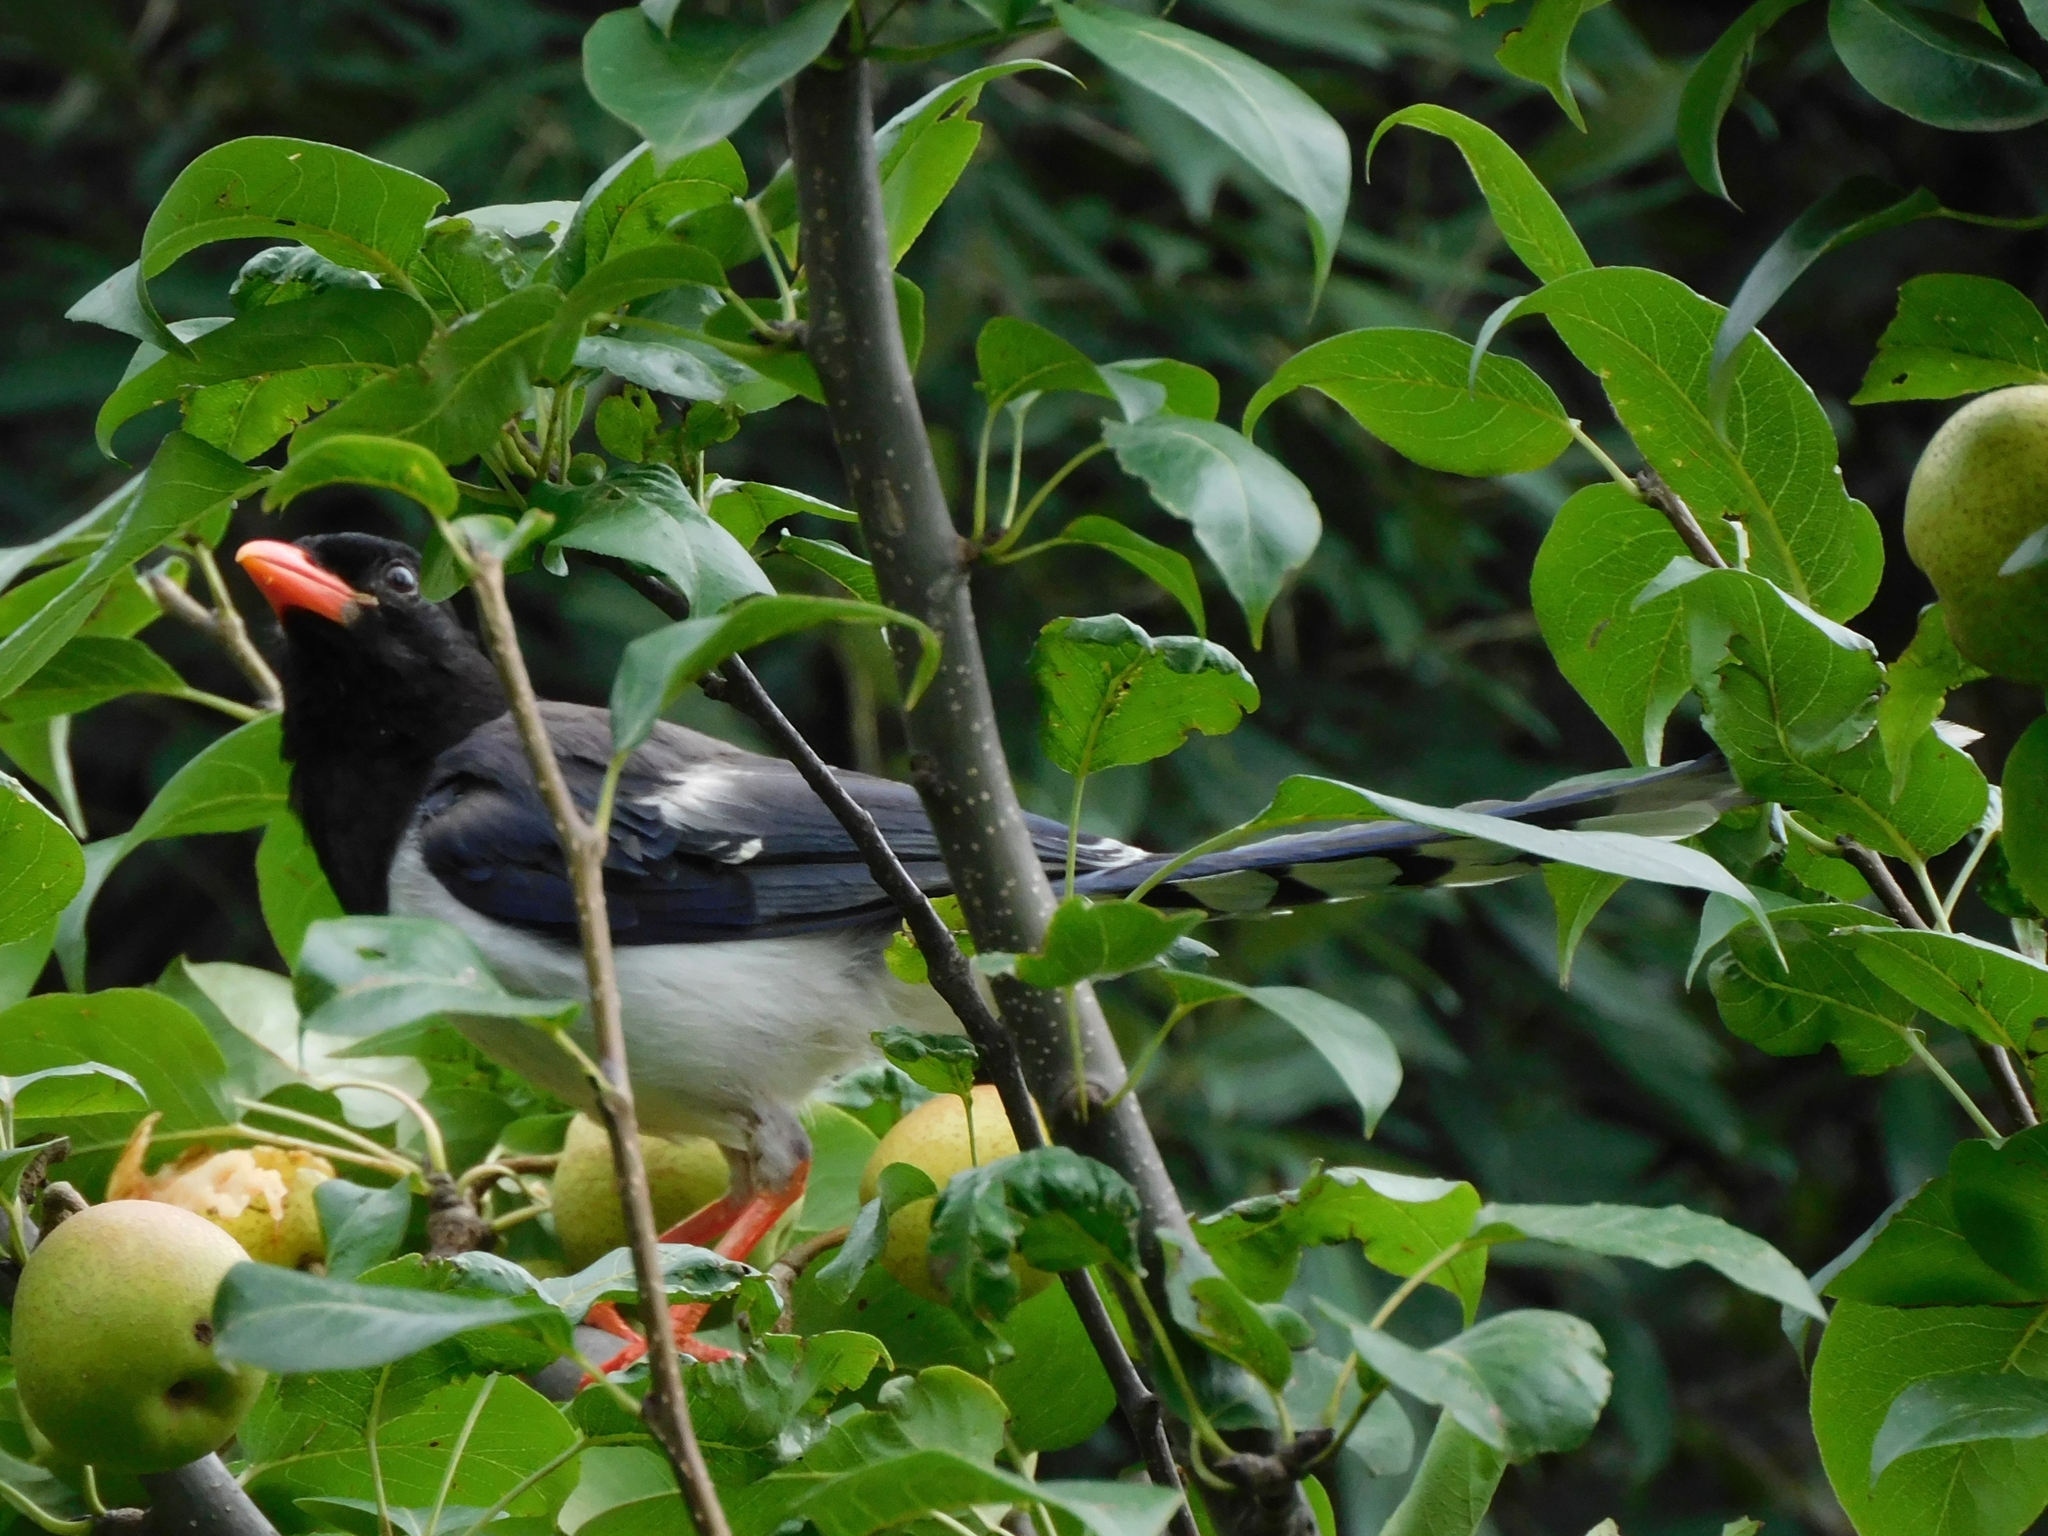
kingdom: Animalia
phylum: Chordata
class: Aves
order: Passeriformes
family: Corvidae
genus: Urocissa
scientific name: Urocissa erythroryncha
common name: Red-billed blue magpie
